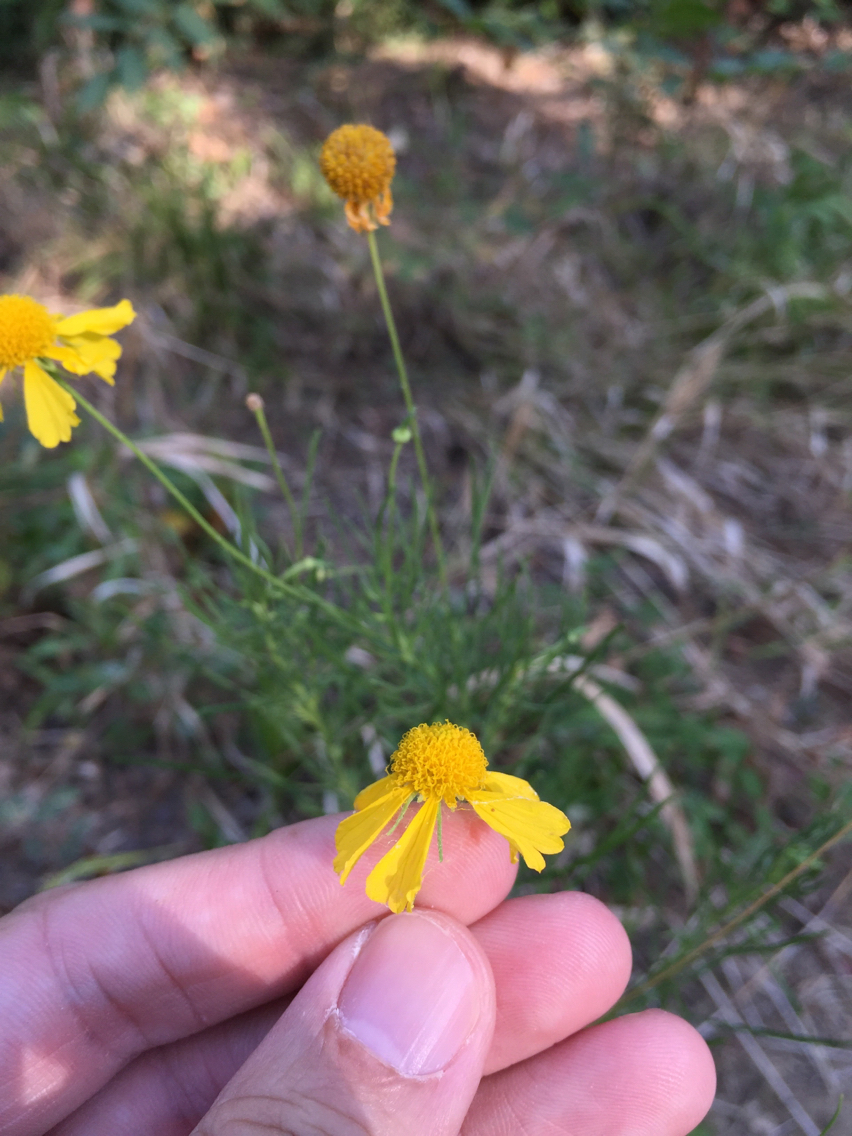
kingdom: Plantae
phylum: Tracheophyta
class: Magnoliopsida
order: Asterales
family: Asteraceae
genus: Helenium
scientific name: Helenium amarum
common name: Bitter sneezeweed
